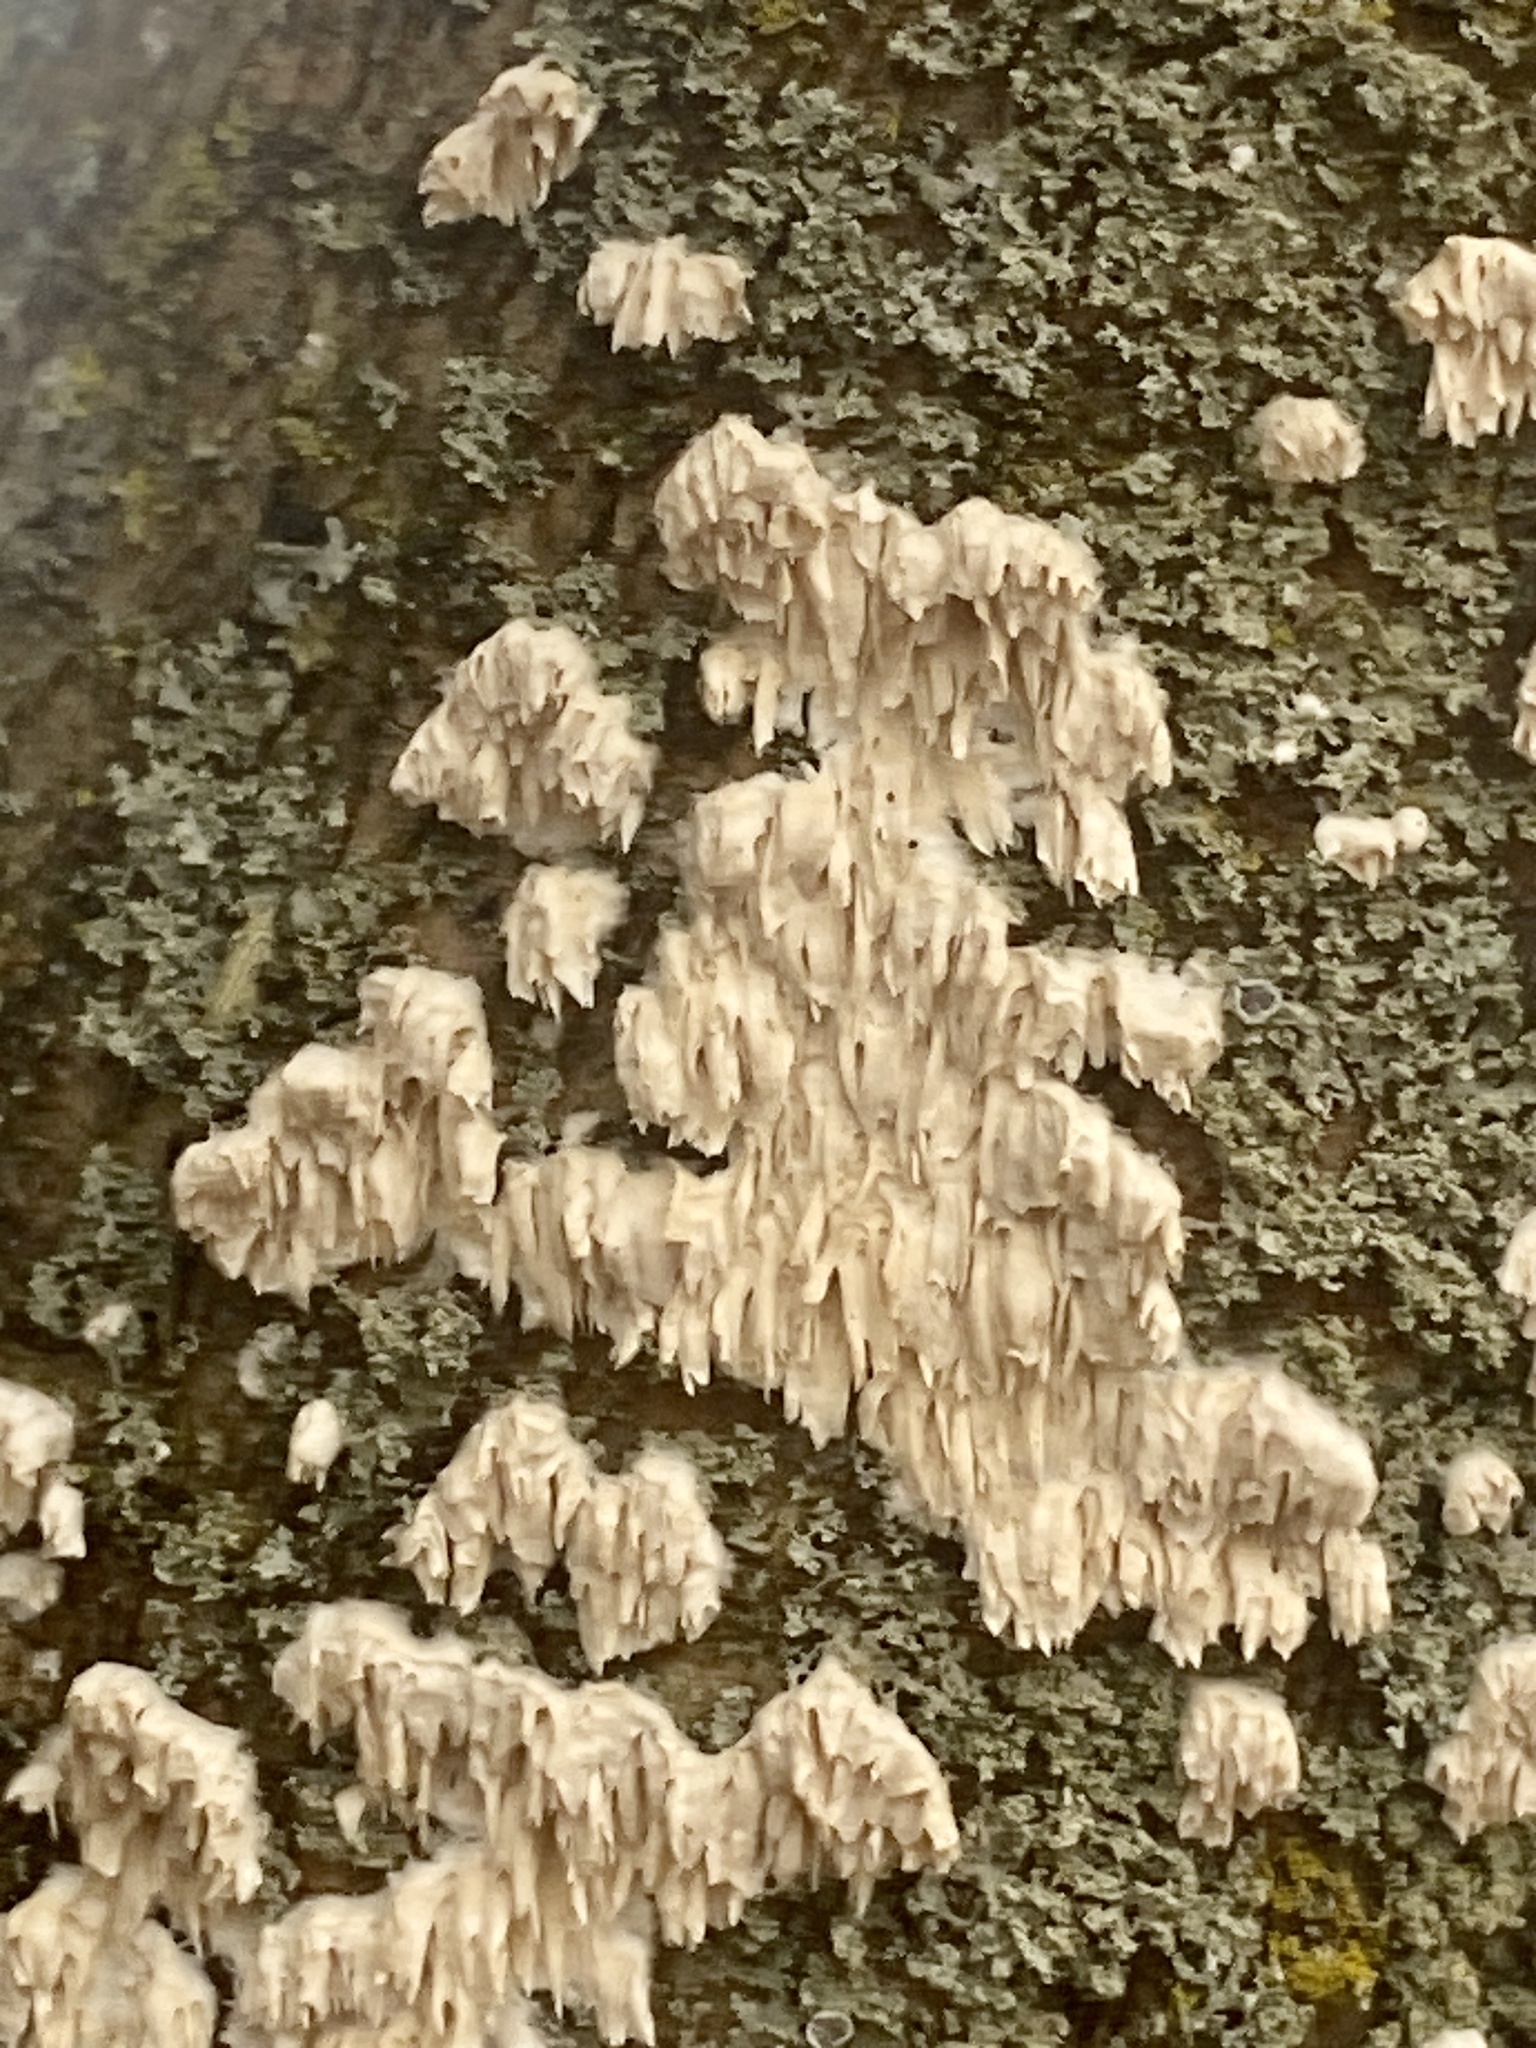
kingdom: Fungi
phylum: Basidiomycota
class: Agaricomycetes
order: Polyporales
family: Irpicaceae
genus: Irpex
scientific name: Irpex lacteus
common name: Milk-white toothed polypore
